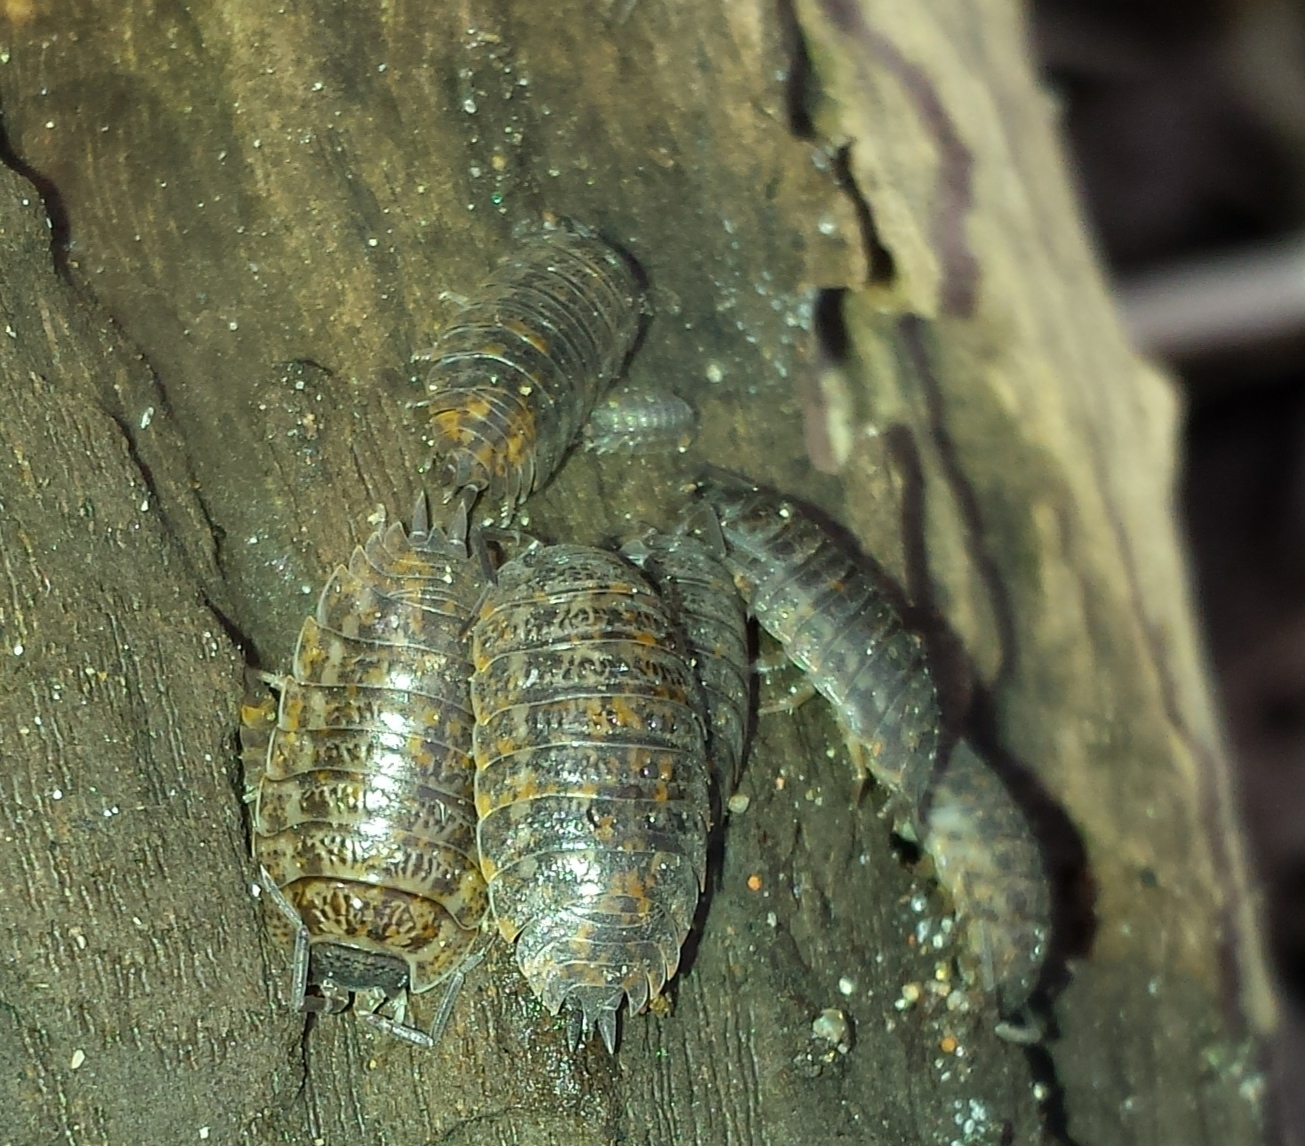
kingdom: Animalia
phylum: Arthropoda
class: Malacostraca
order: Isopoda
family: Trachelipodidae
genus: Trachelipus
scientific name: Trachelipus rathkii
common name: Isopod
